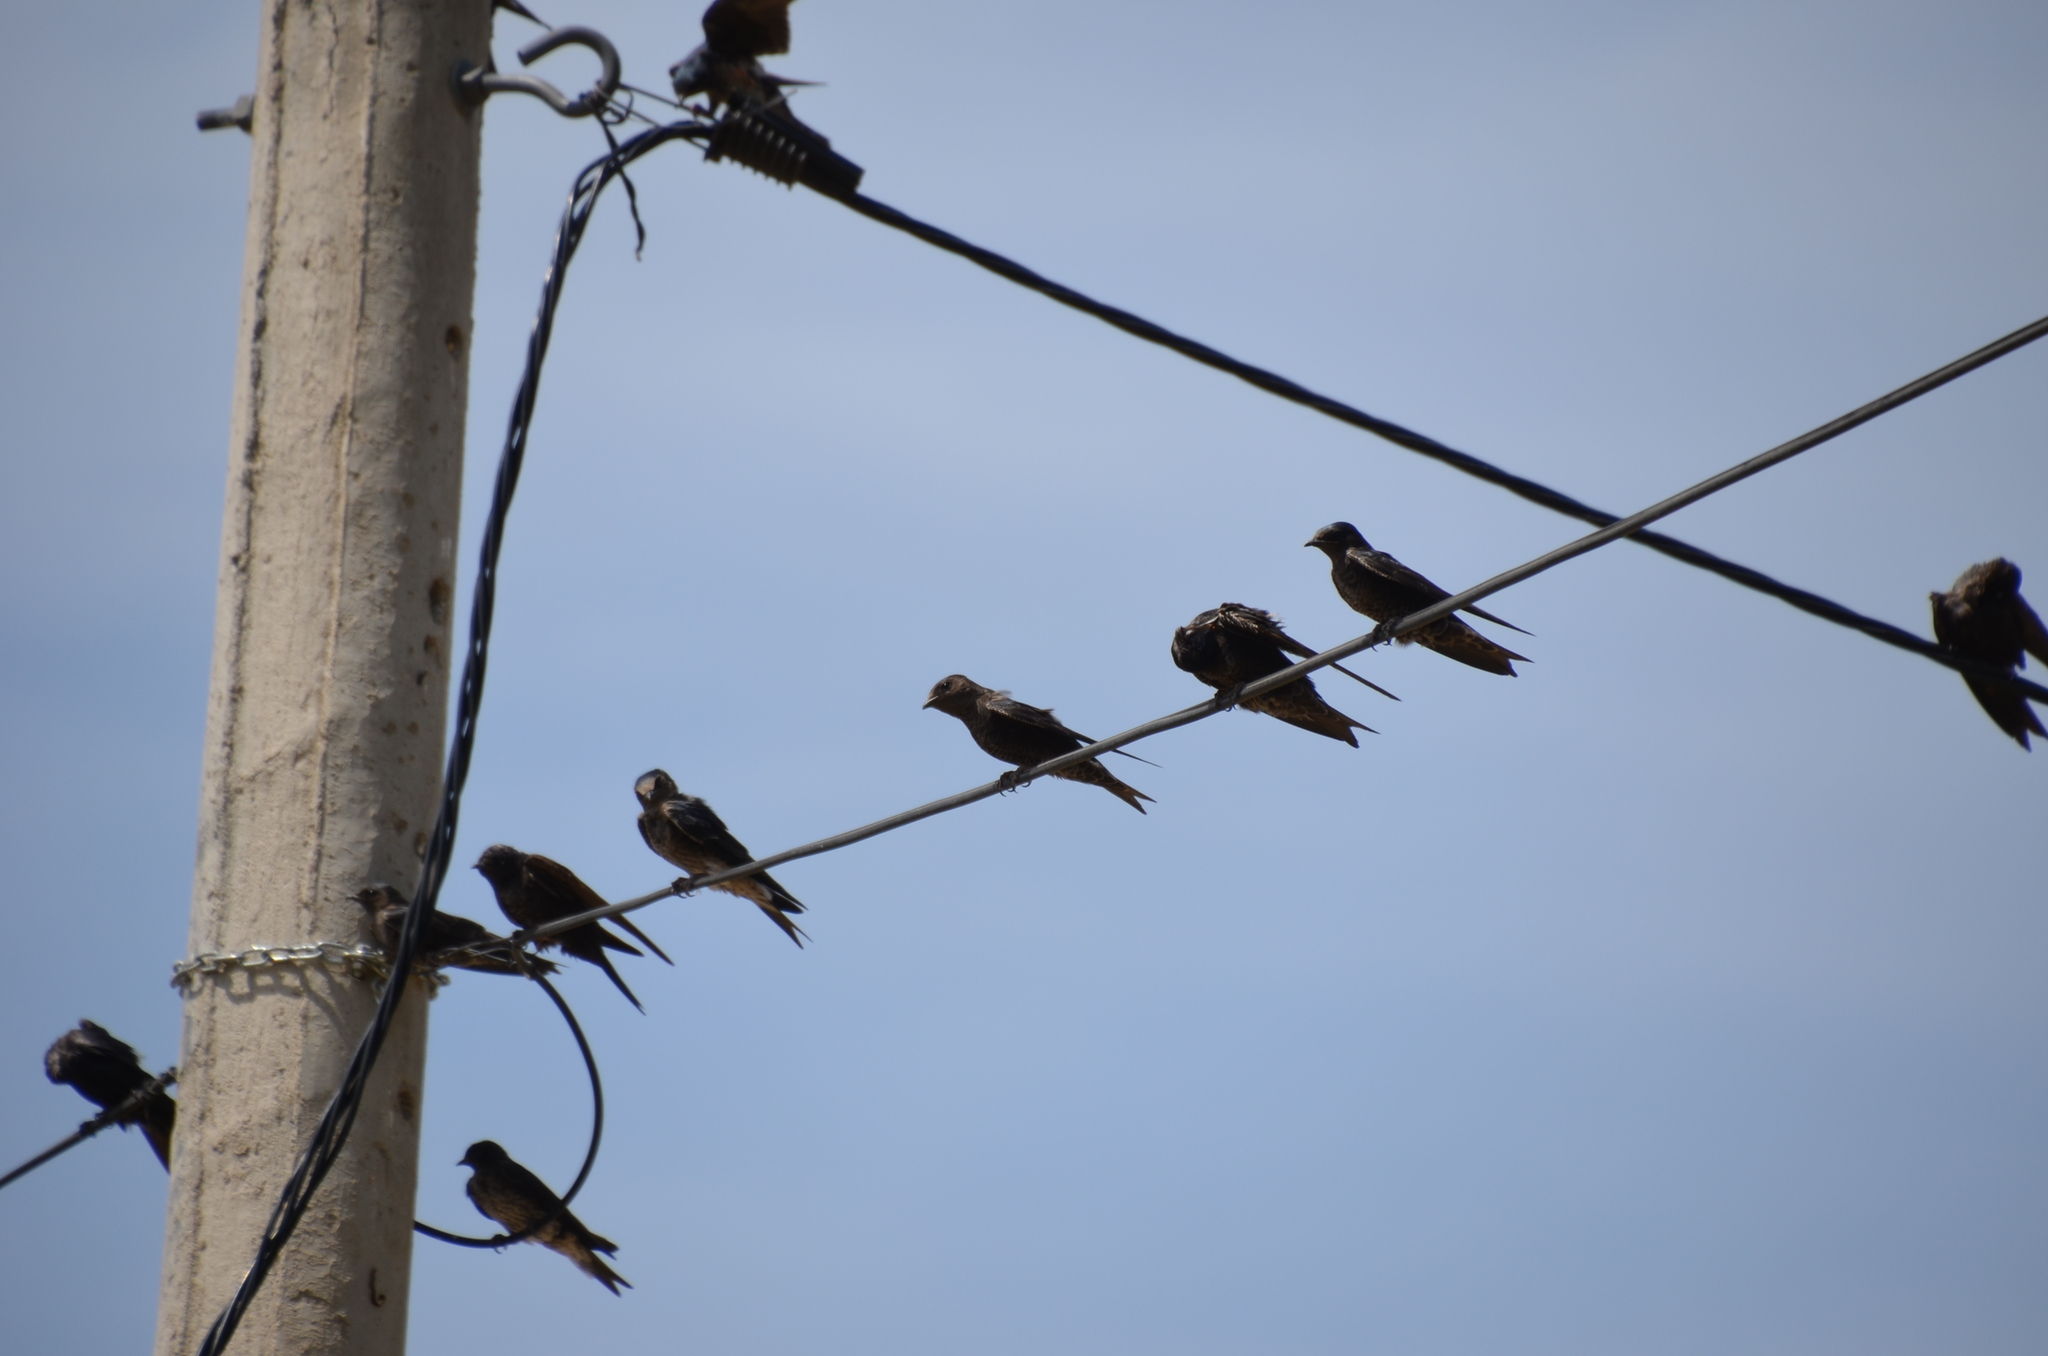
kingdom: Animalia
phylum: Chordata
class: Aves
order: Passeriformes
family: Hirundinidae
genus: Progne
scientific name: Progne elegans
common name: Southern martin
